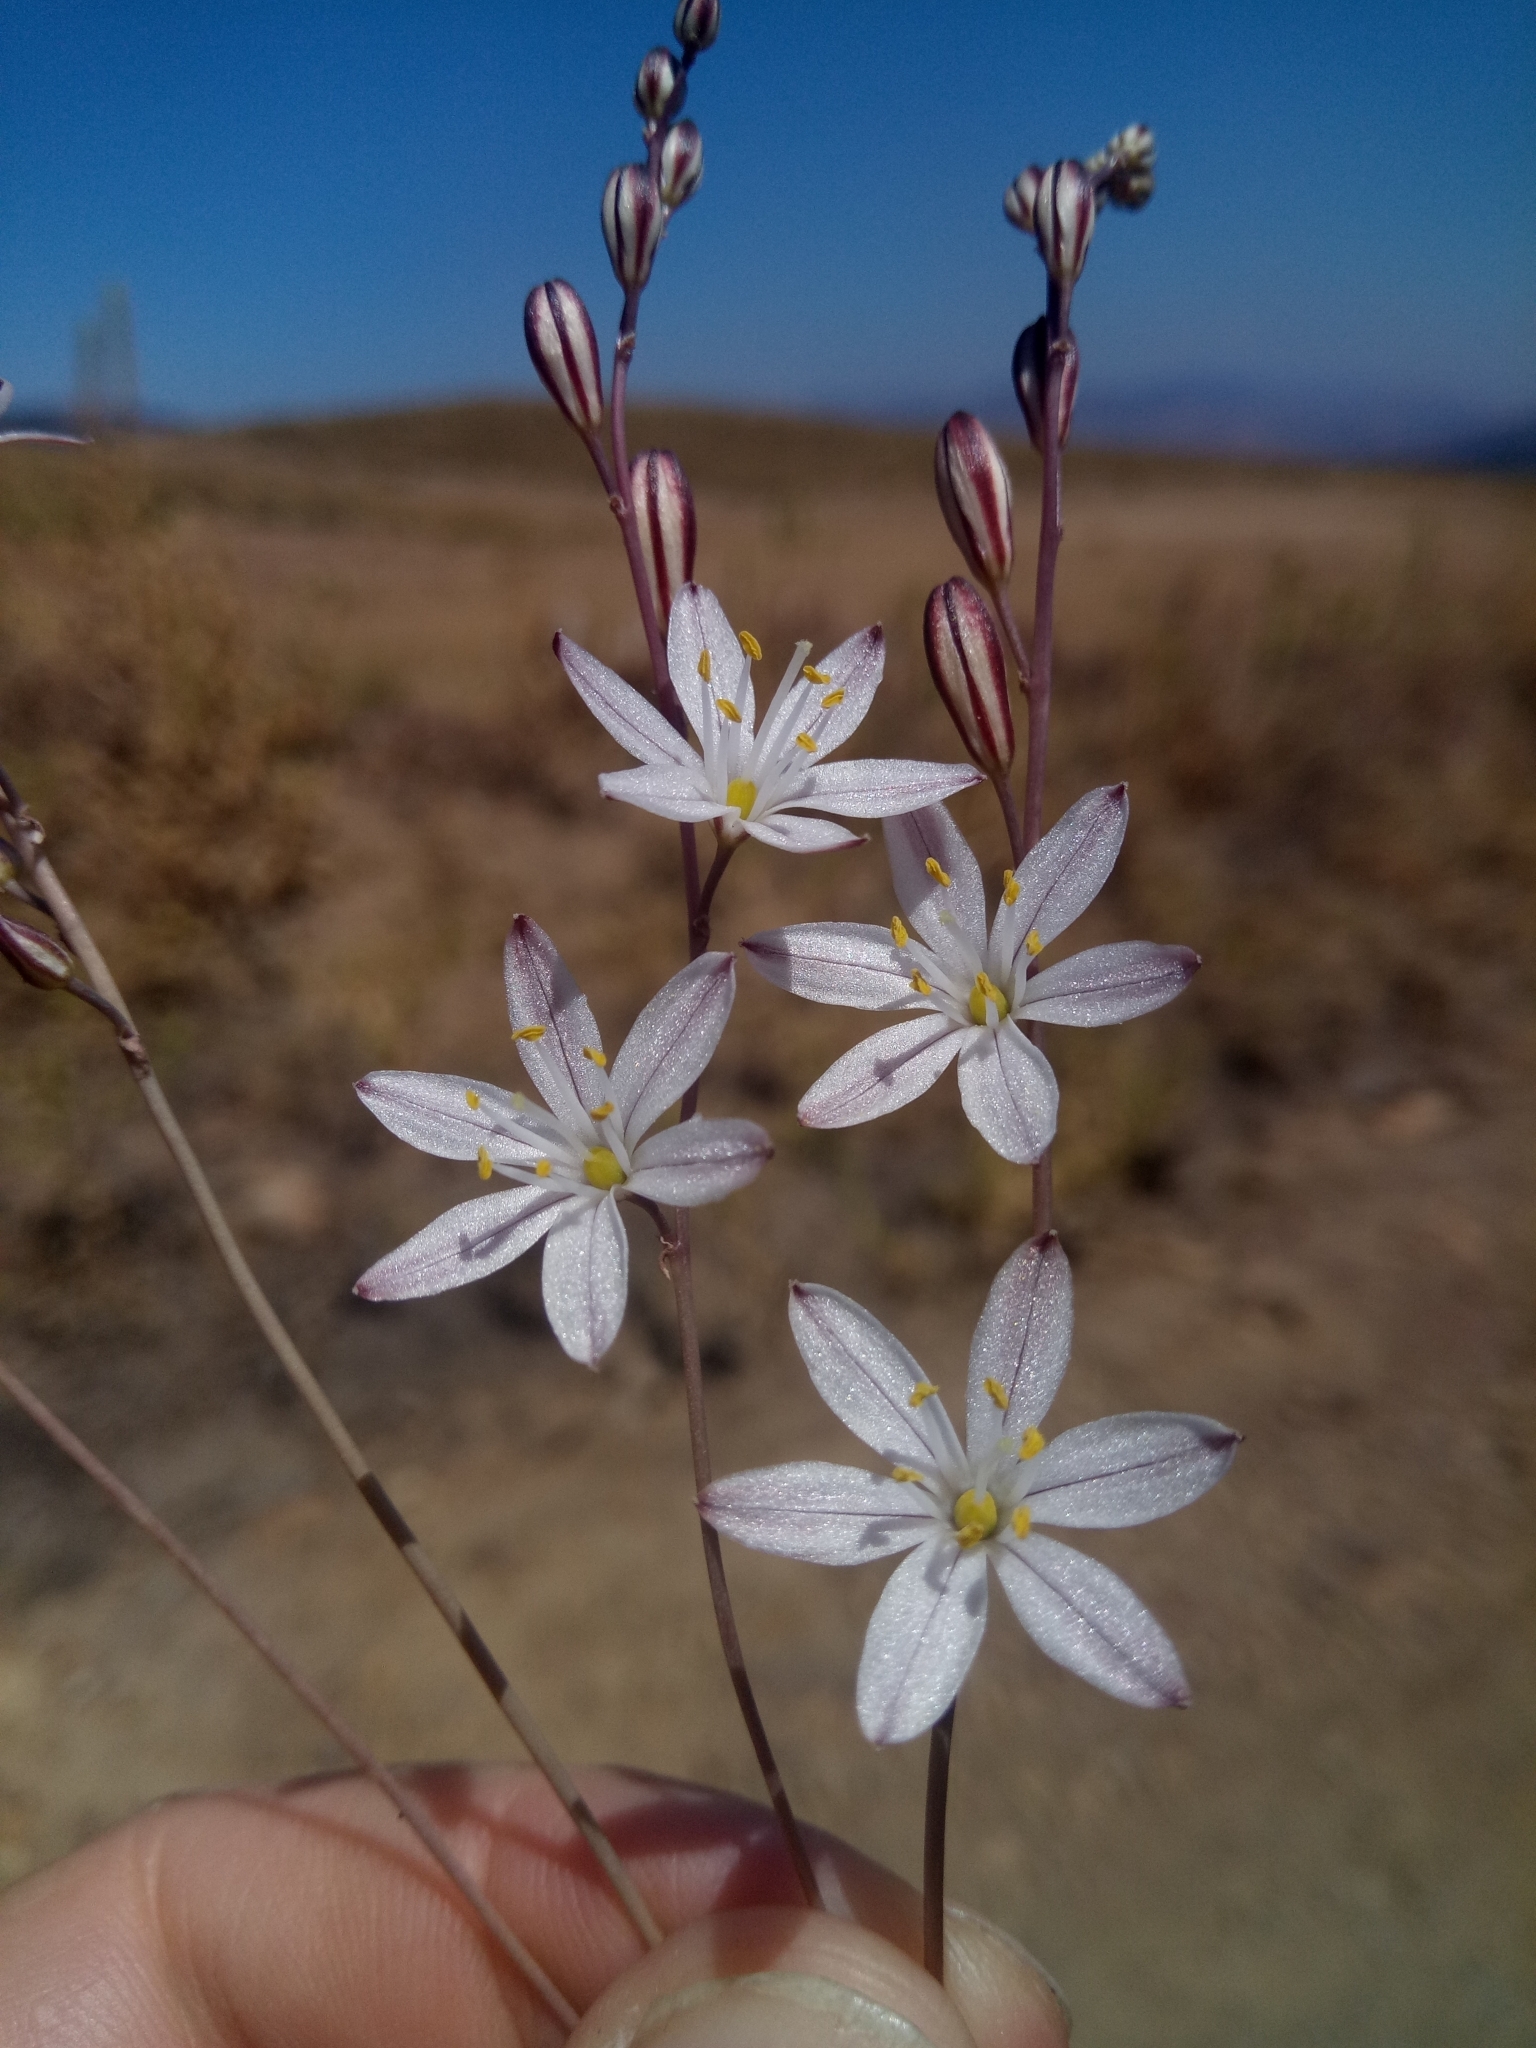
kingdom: Plantae
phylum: Tracheophyta
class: Liliopsida
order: Asparagales
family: Asparagaceae
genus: Drimia
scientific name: Drimia fugax
